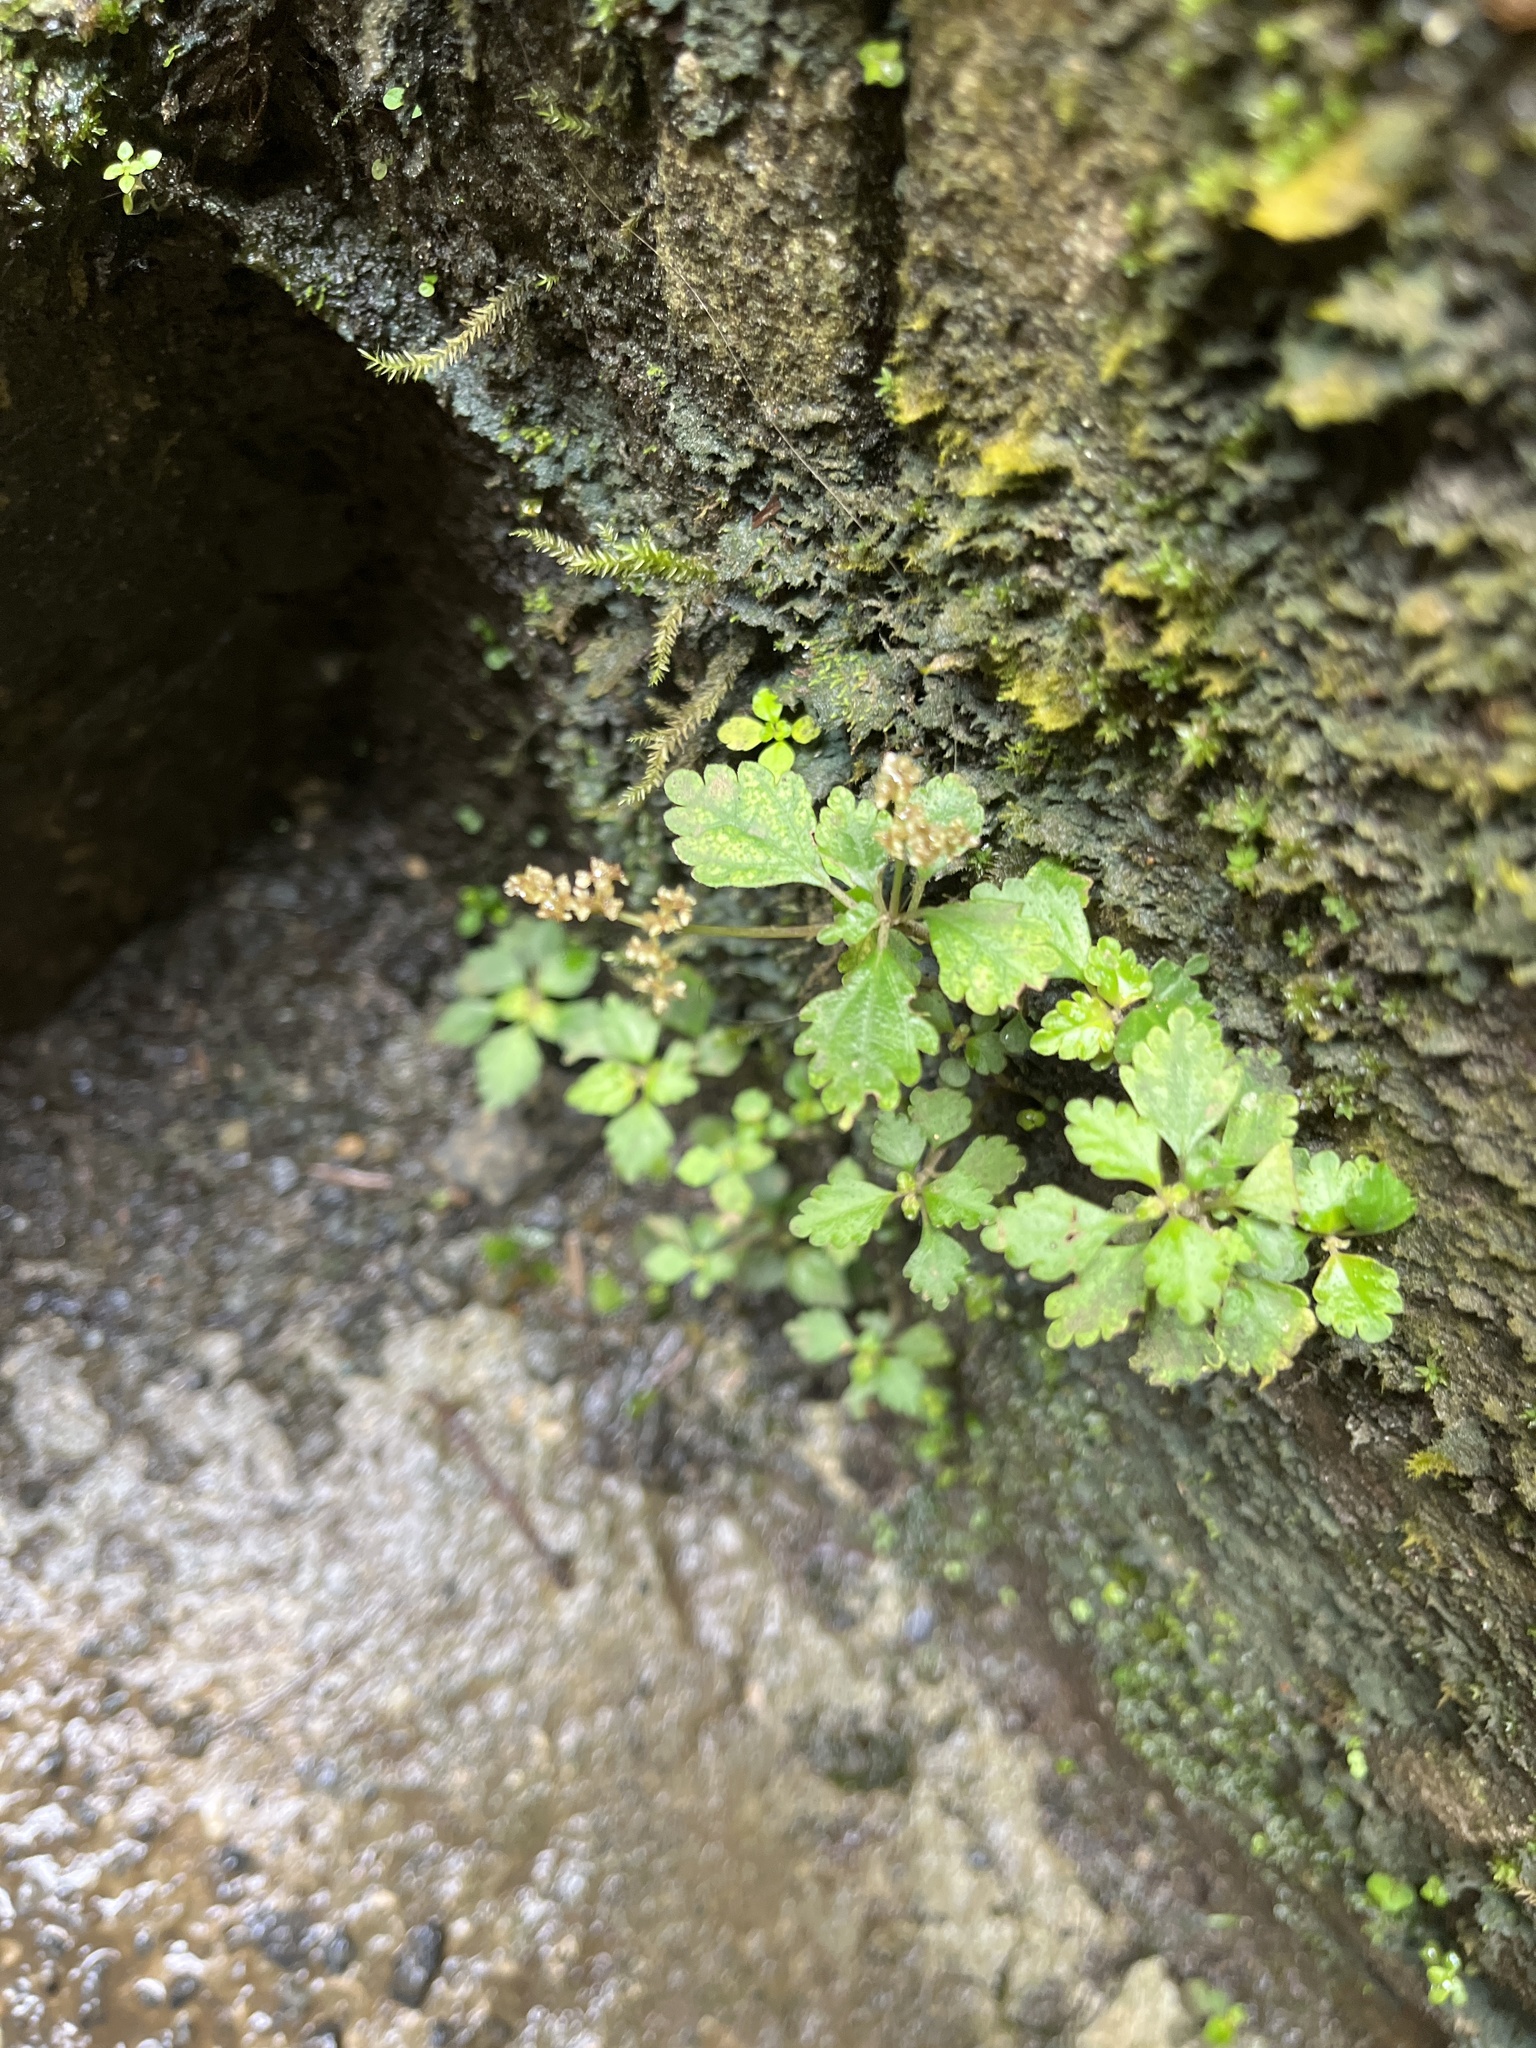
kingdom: Plantae
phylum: Tracheophyta
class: Magnoliopsida
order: Rosales
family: Urticaceae
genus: Pilea
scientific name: Pilea inaequalis
